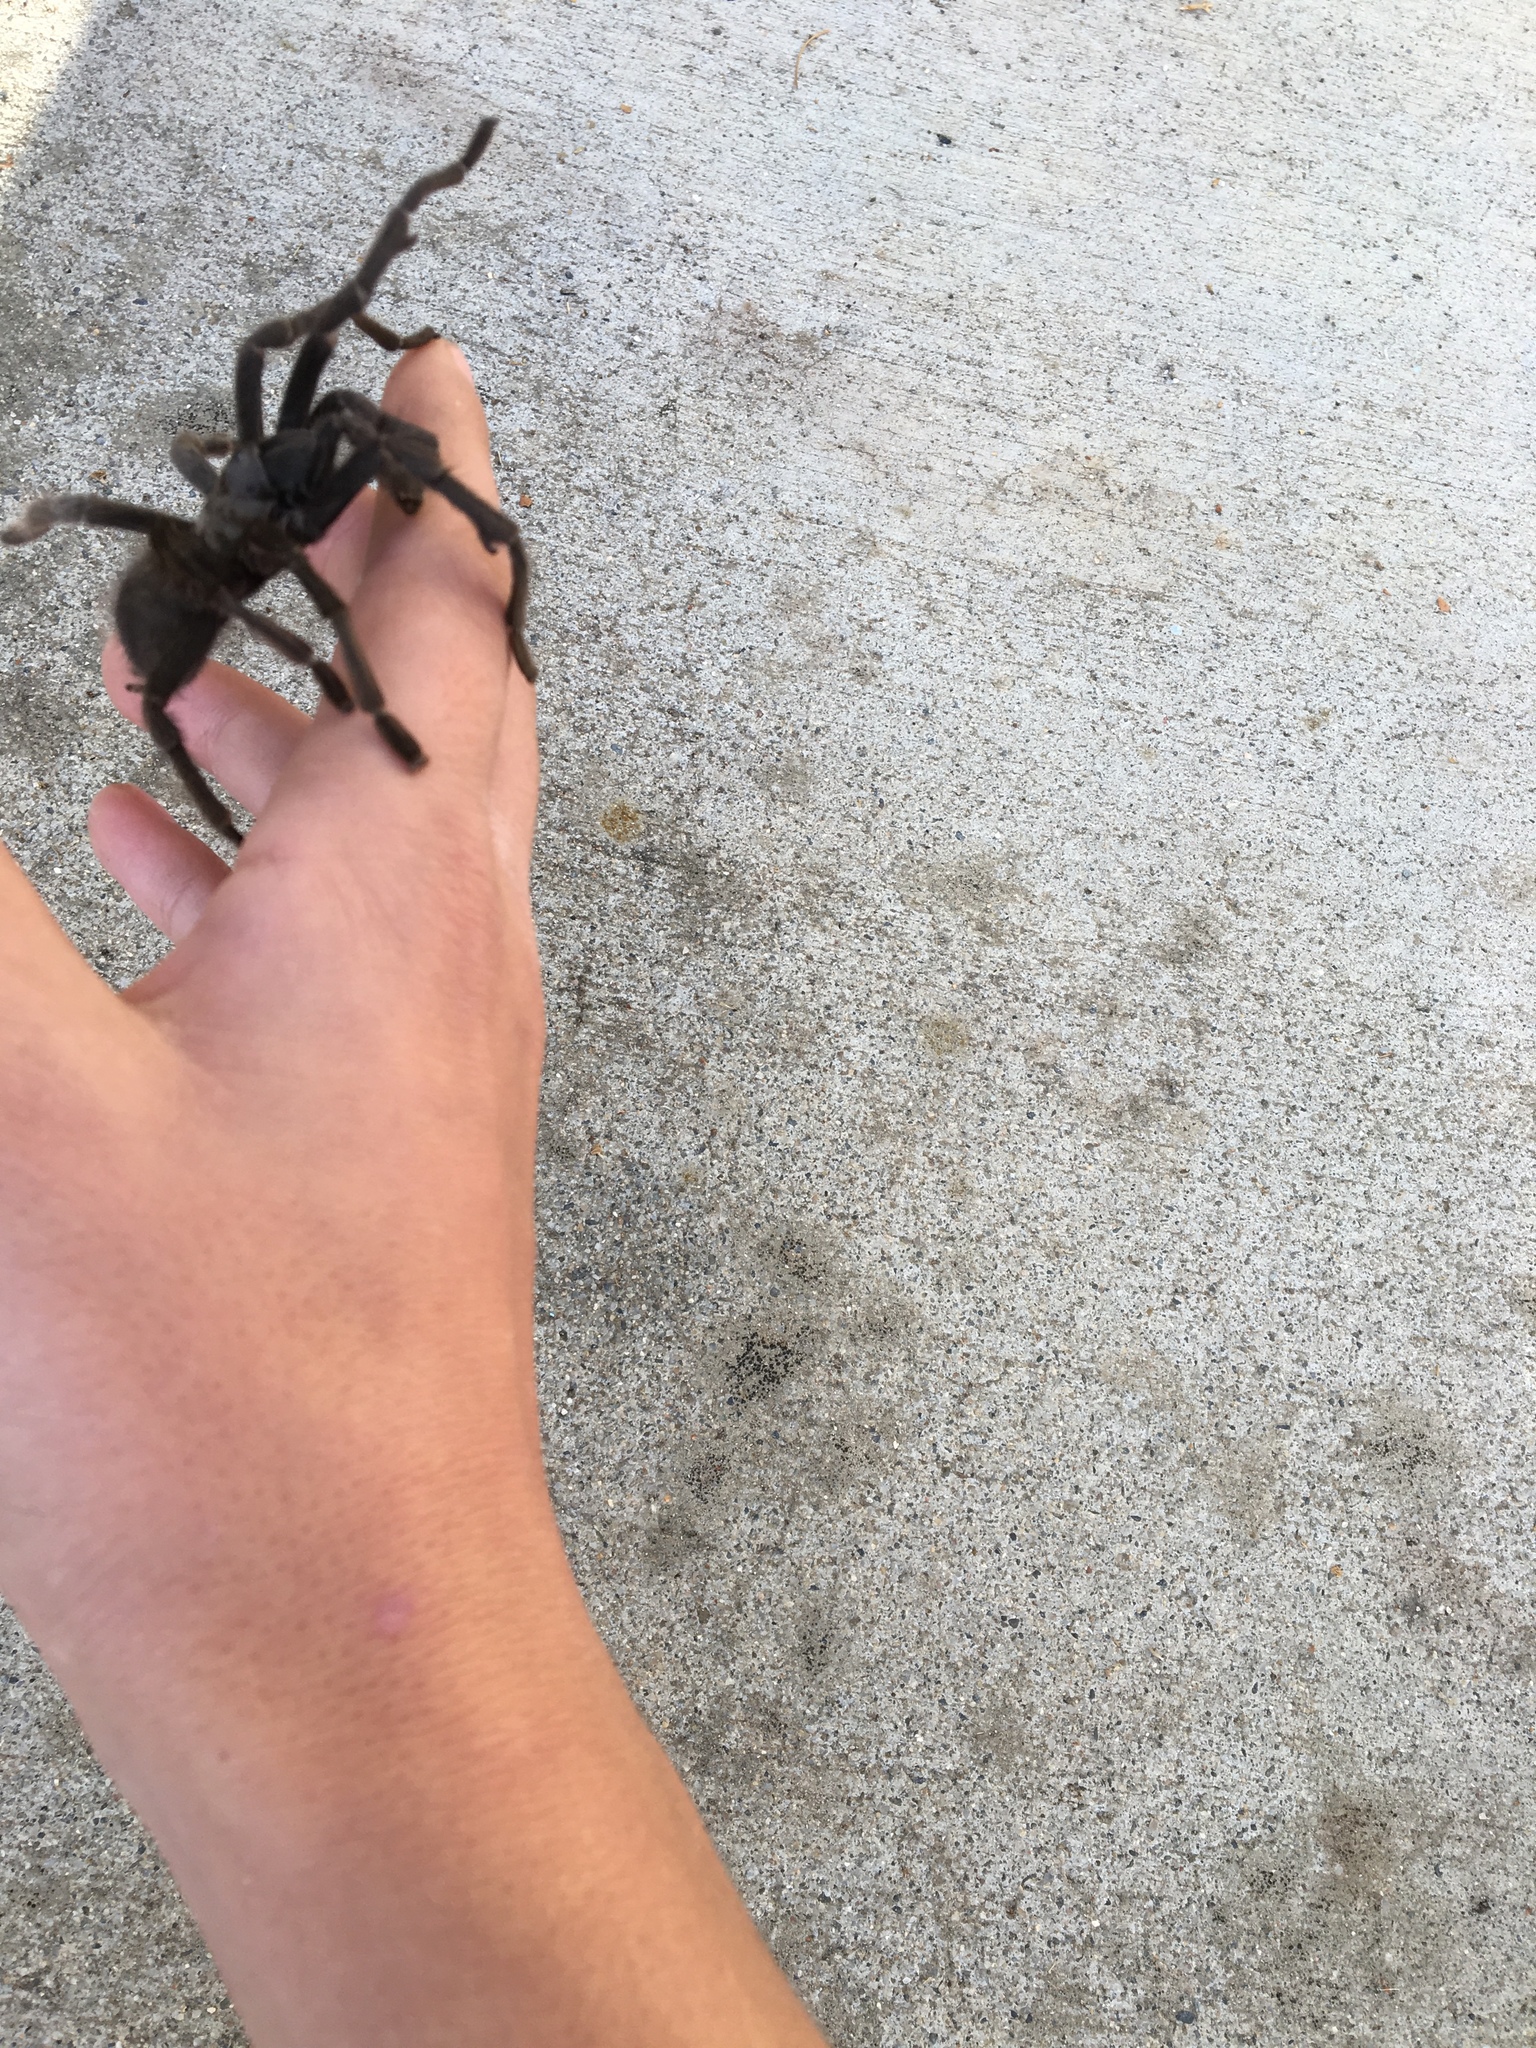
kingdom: Animalia
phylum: Arthropoda
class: Arachnida
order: Araneae
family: Theraphosidae
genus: Aphonopelma
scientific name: Aphonopelma johnnycashi
